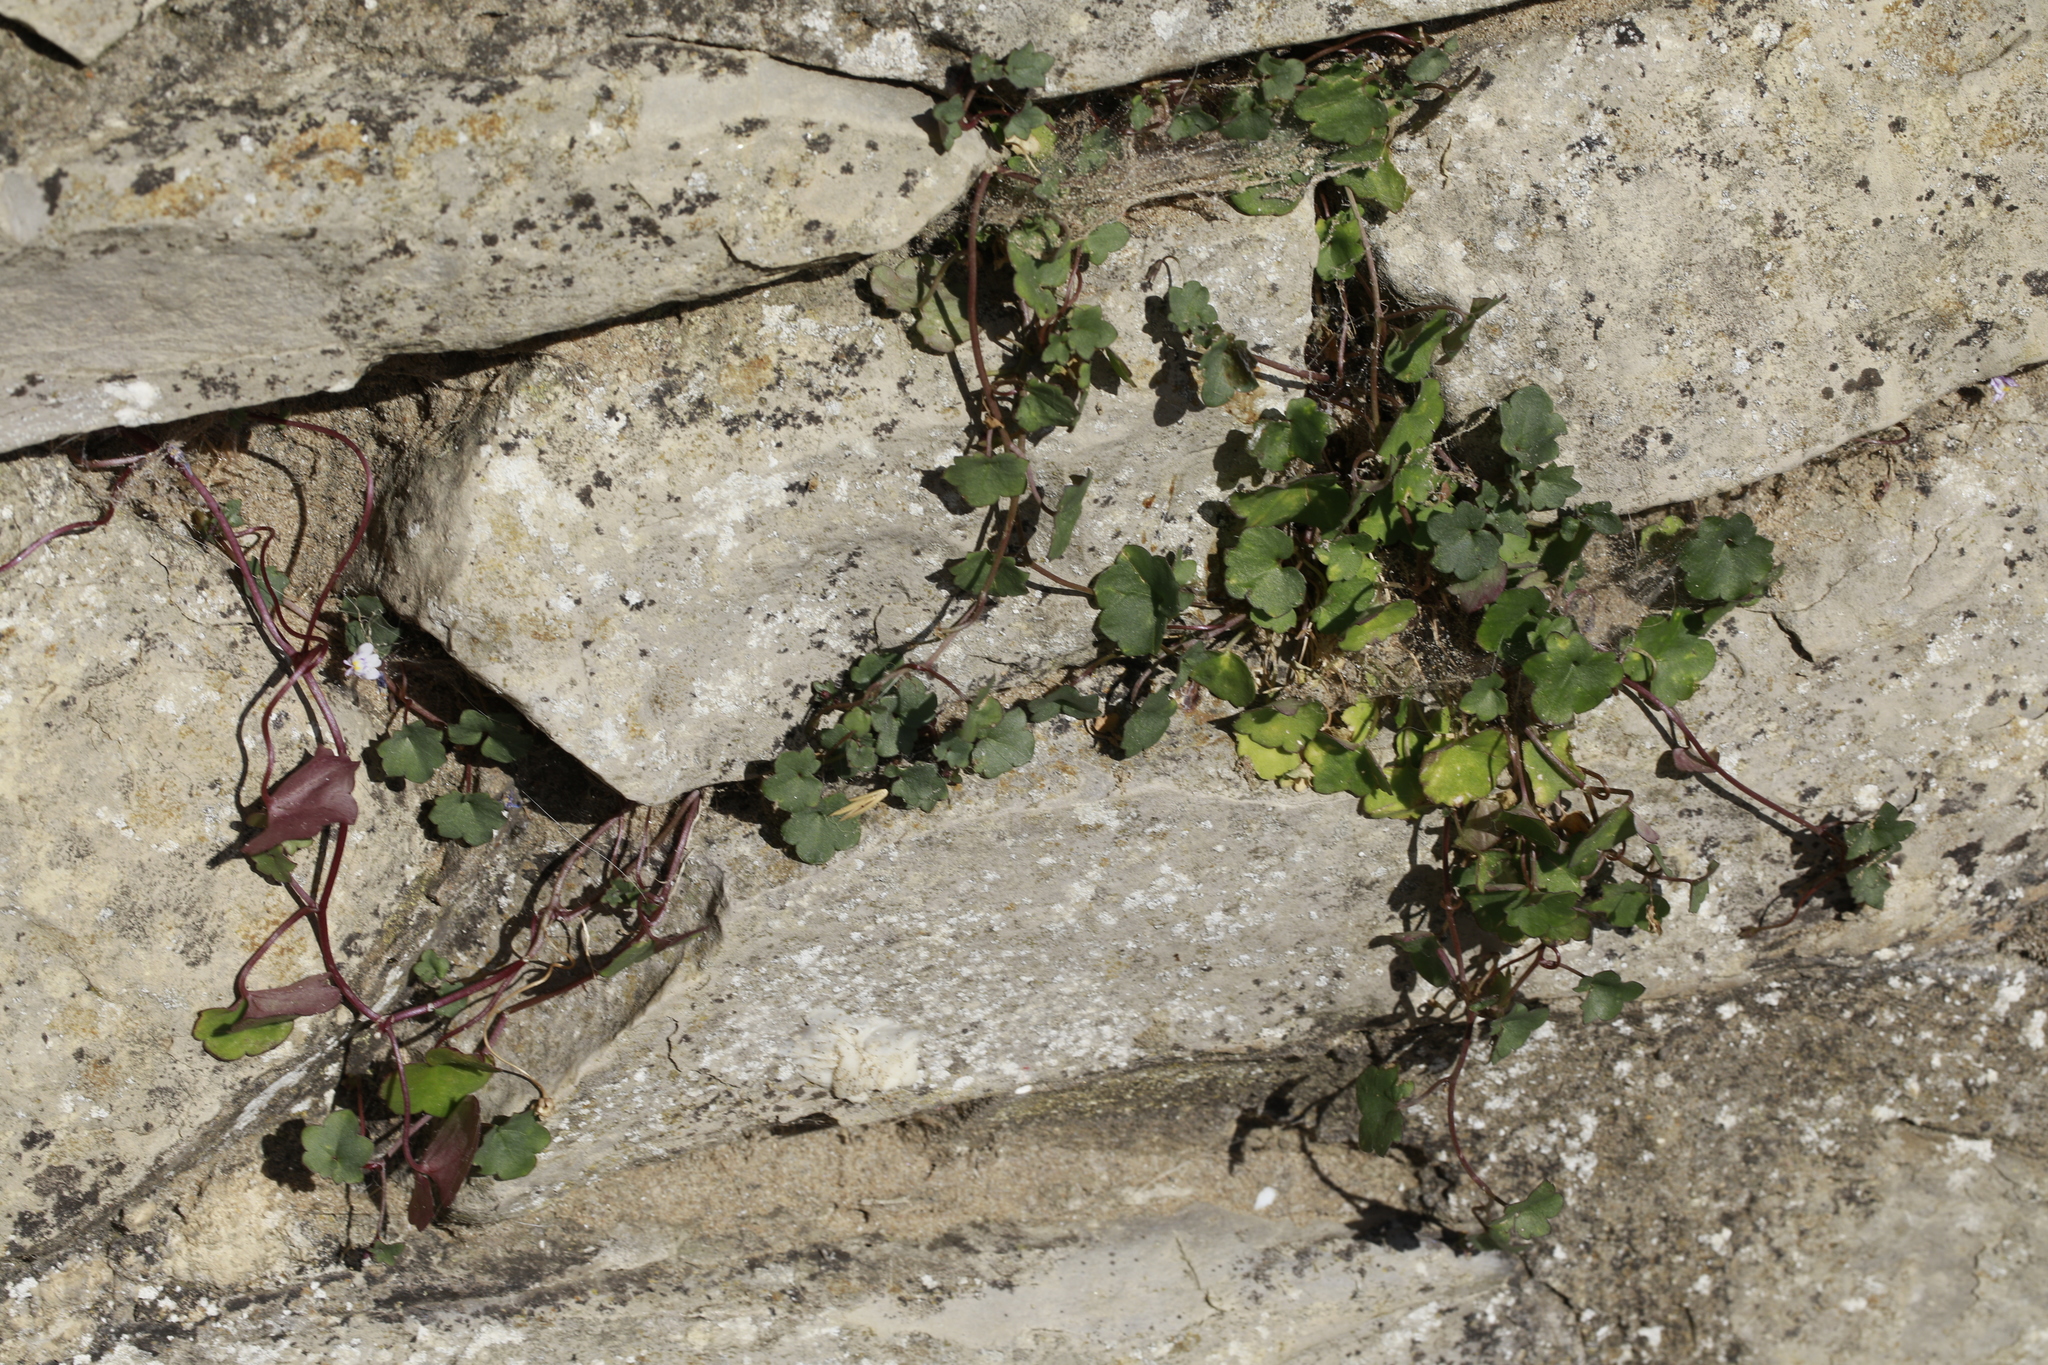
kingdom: Plantae
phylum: Tracheophyta
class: Magnoliopsida
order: Lamiales
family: Plantaginaceae
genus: Cymbalaria
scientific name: Cymbalaria muralis
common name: Ivy-leaved toadflax
